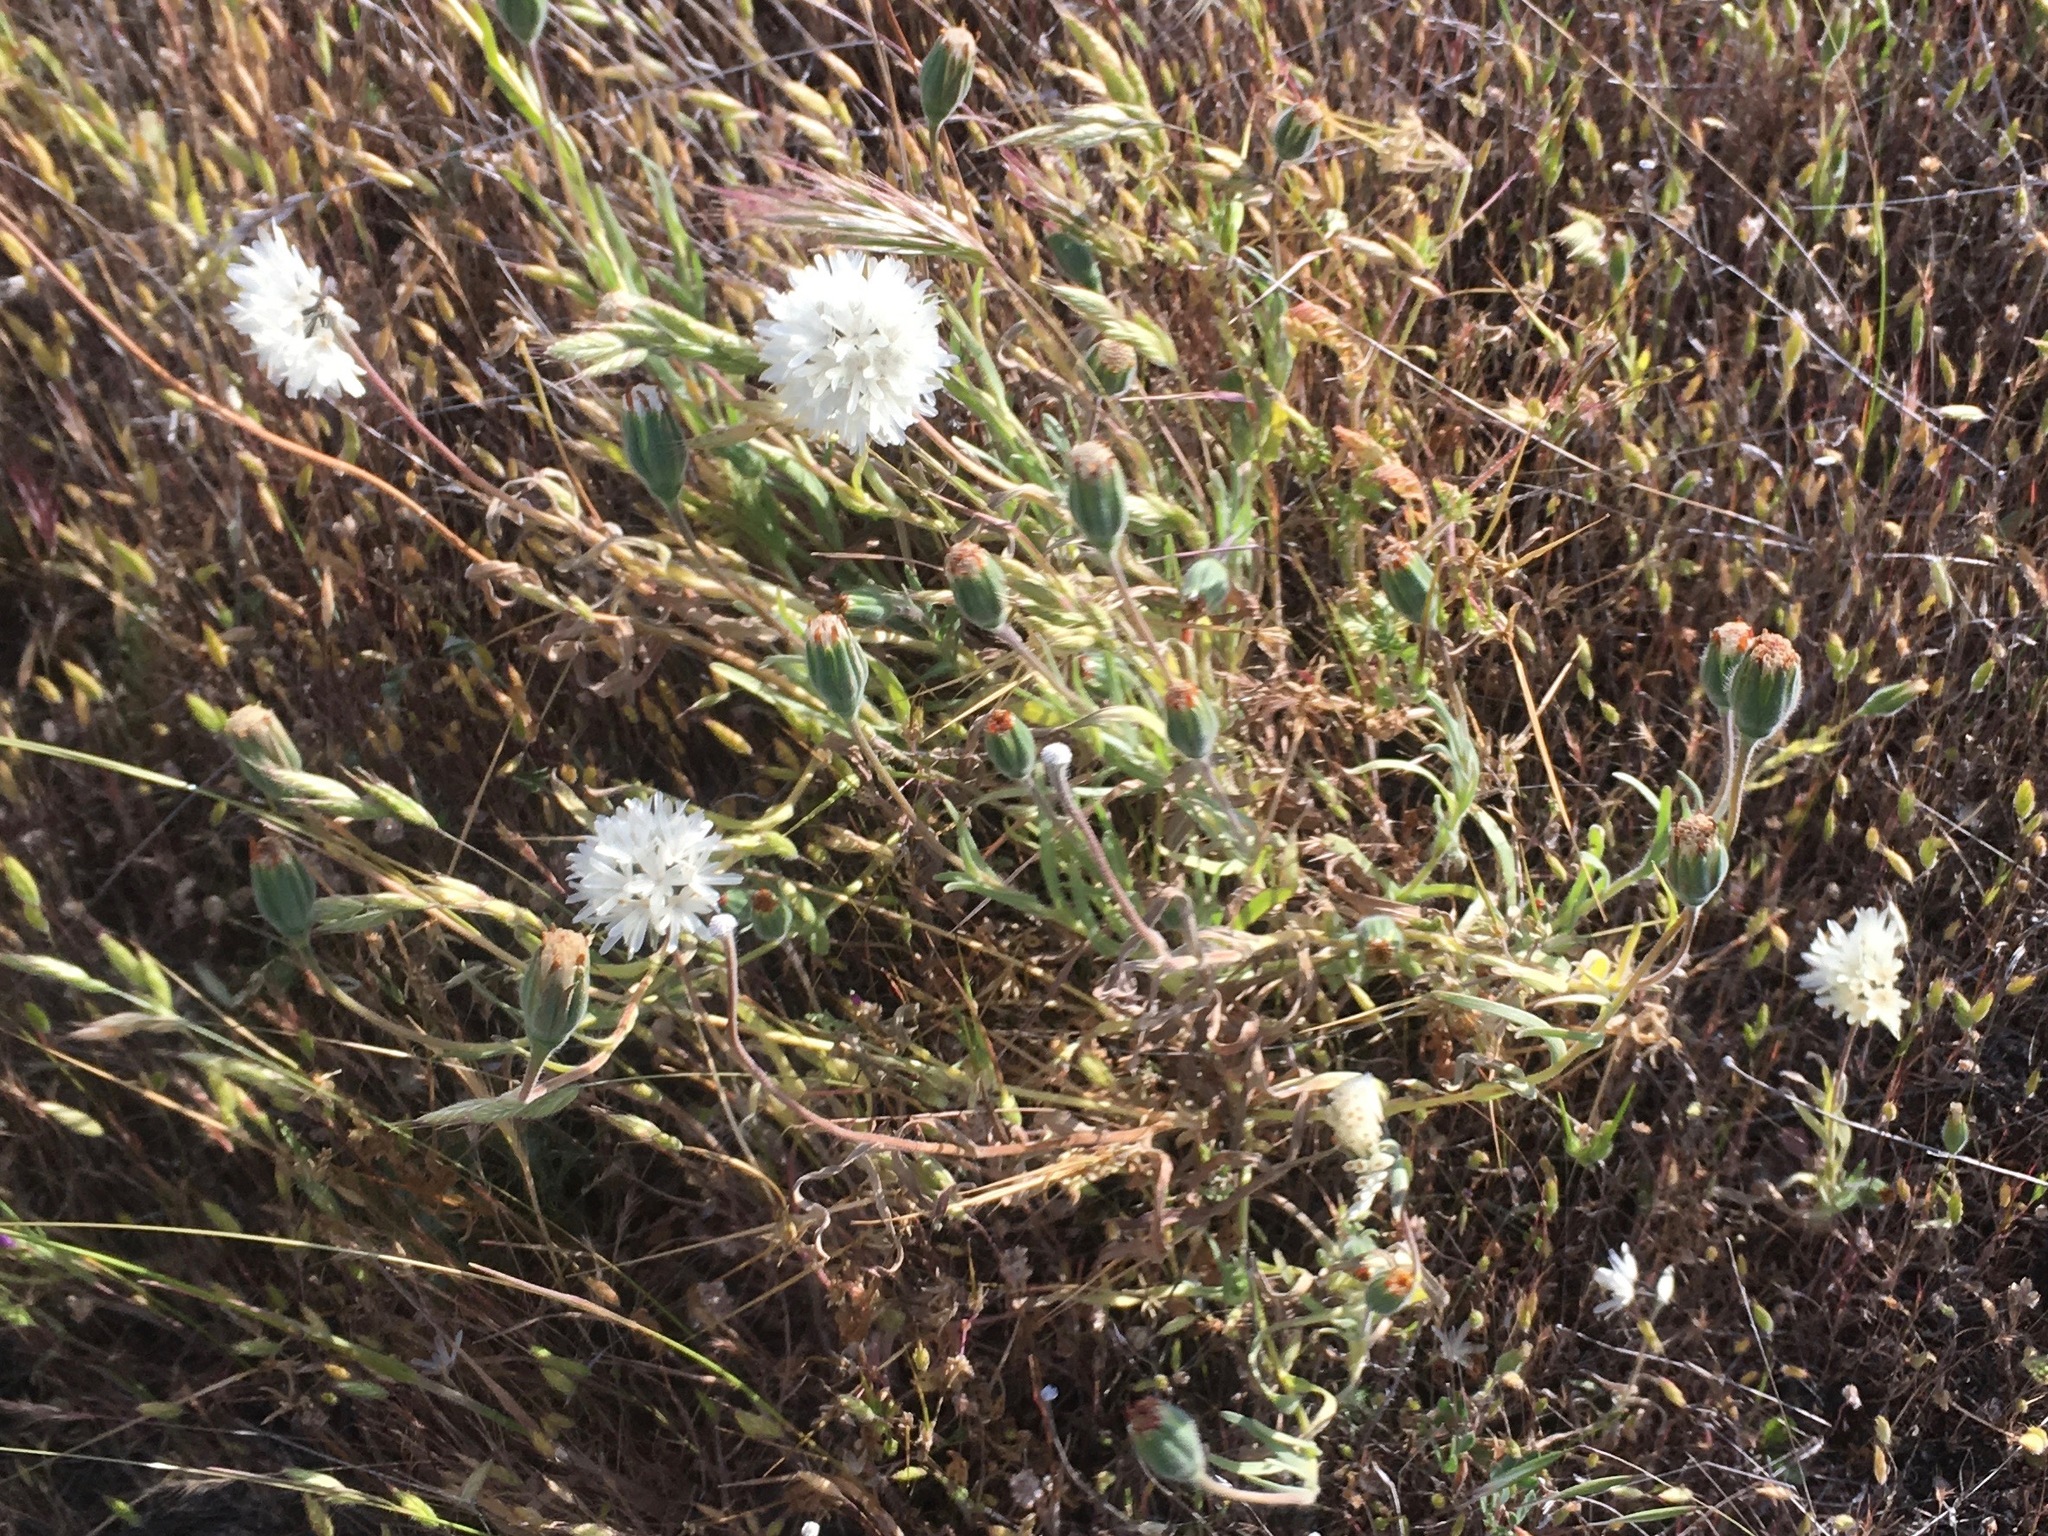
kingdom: Plantae
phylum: Tracheophyta
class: Magnoliopsida
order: Asterales
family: Asteraceae
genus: Achyrachaena
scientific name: Achyrachaena mollis
